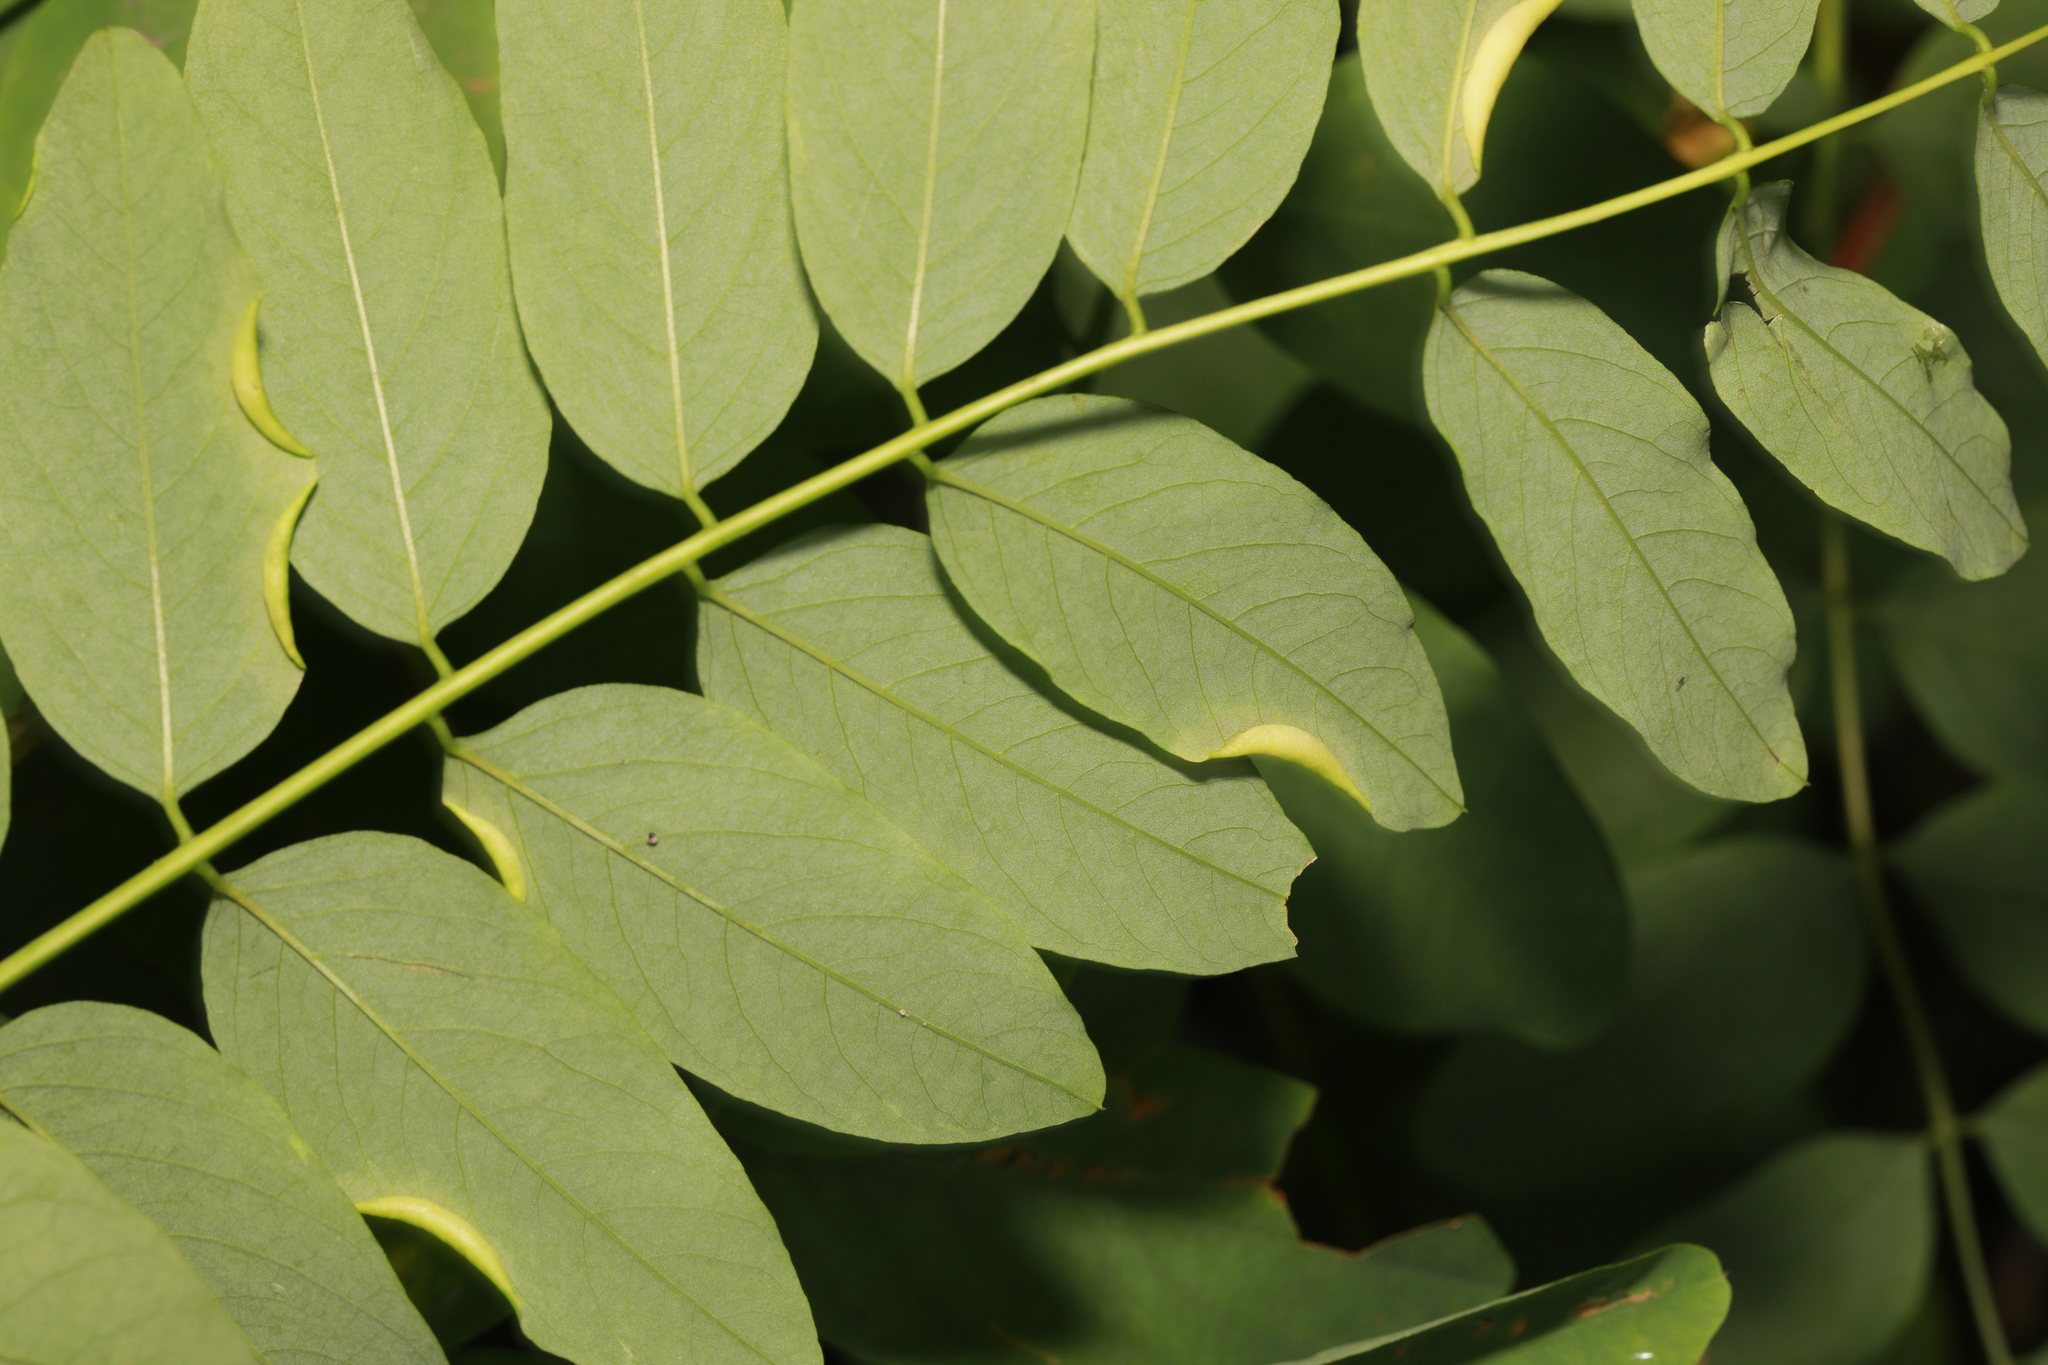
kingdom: Animalia
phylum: Arthropoda
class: Insecta
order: Diptera
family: Cecidomyiidae
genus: Obolodiplosis
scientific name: Obolodiplosis robiniae
